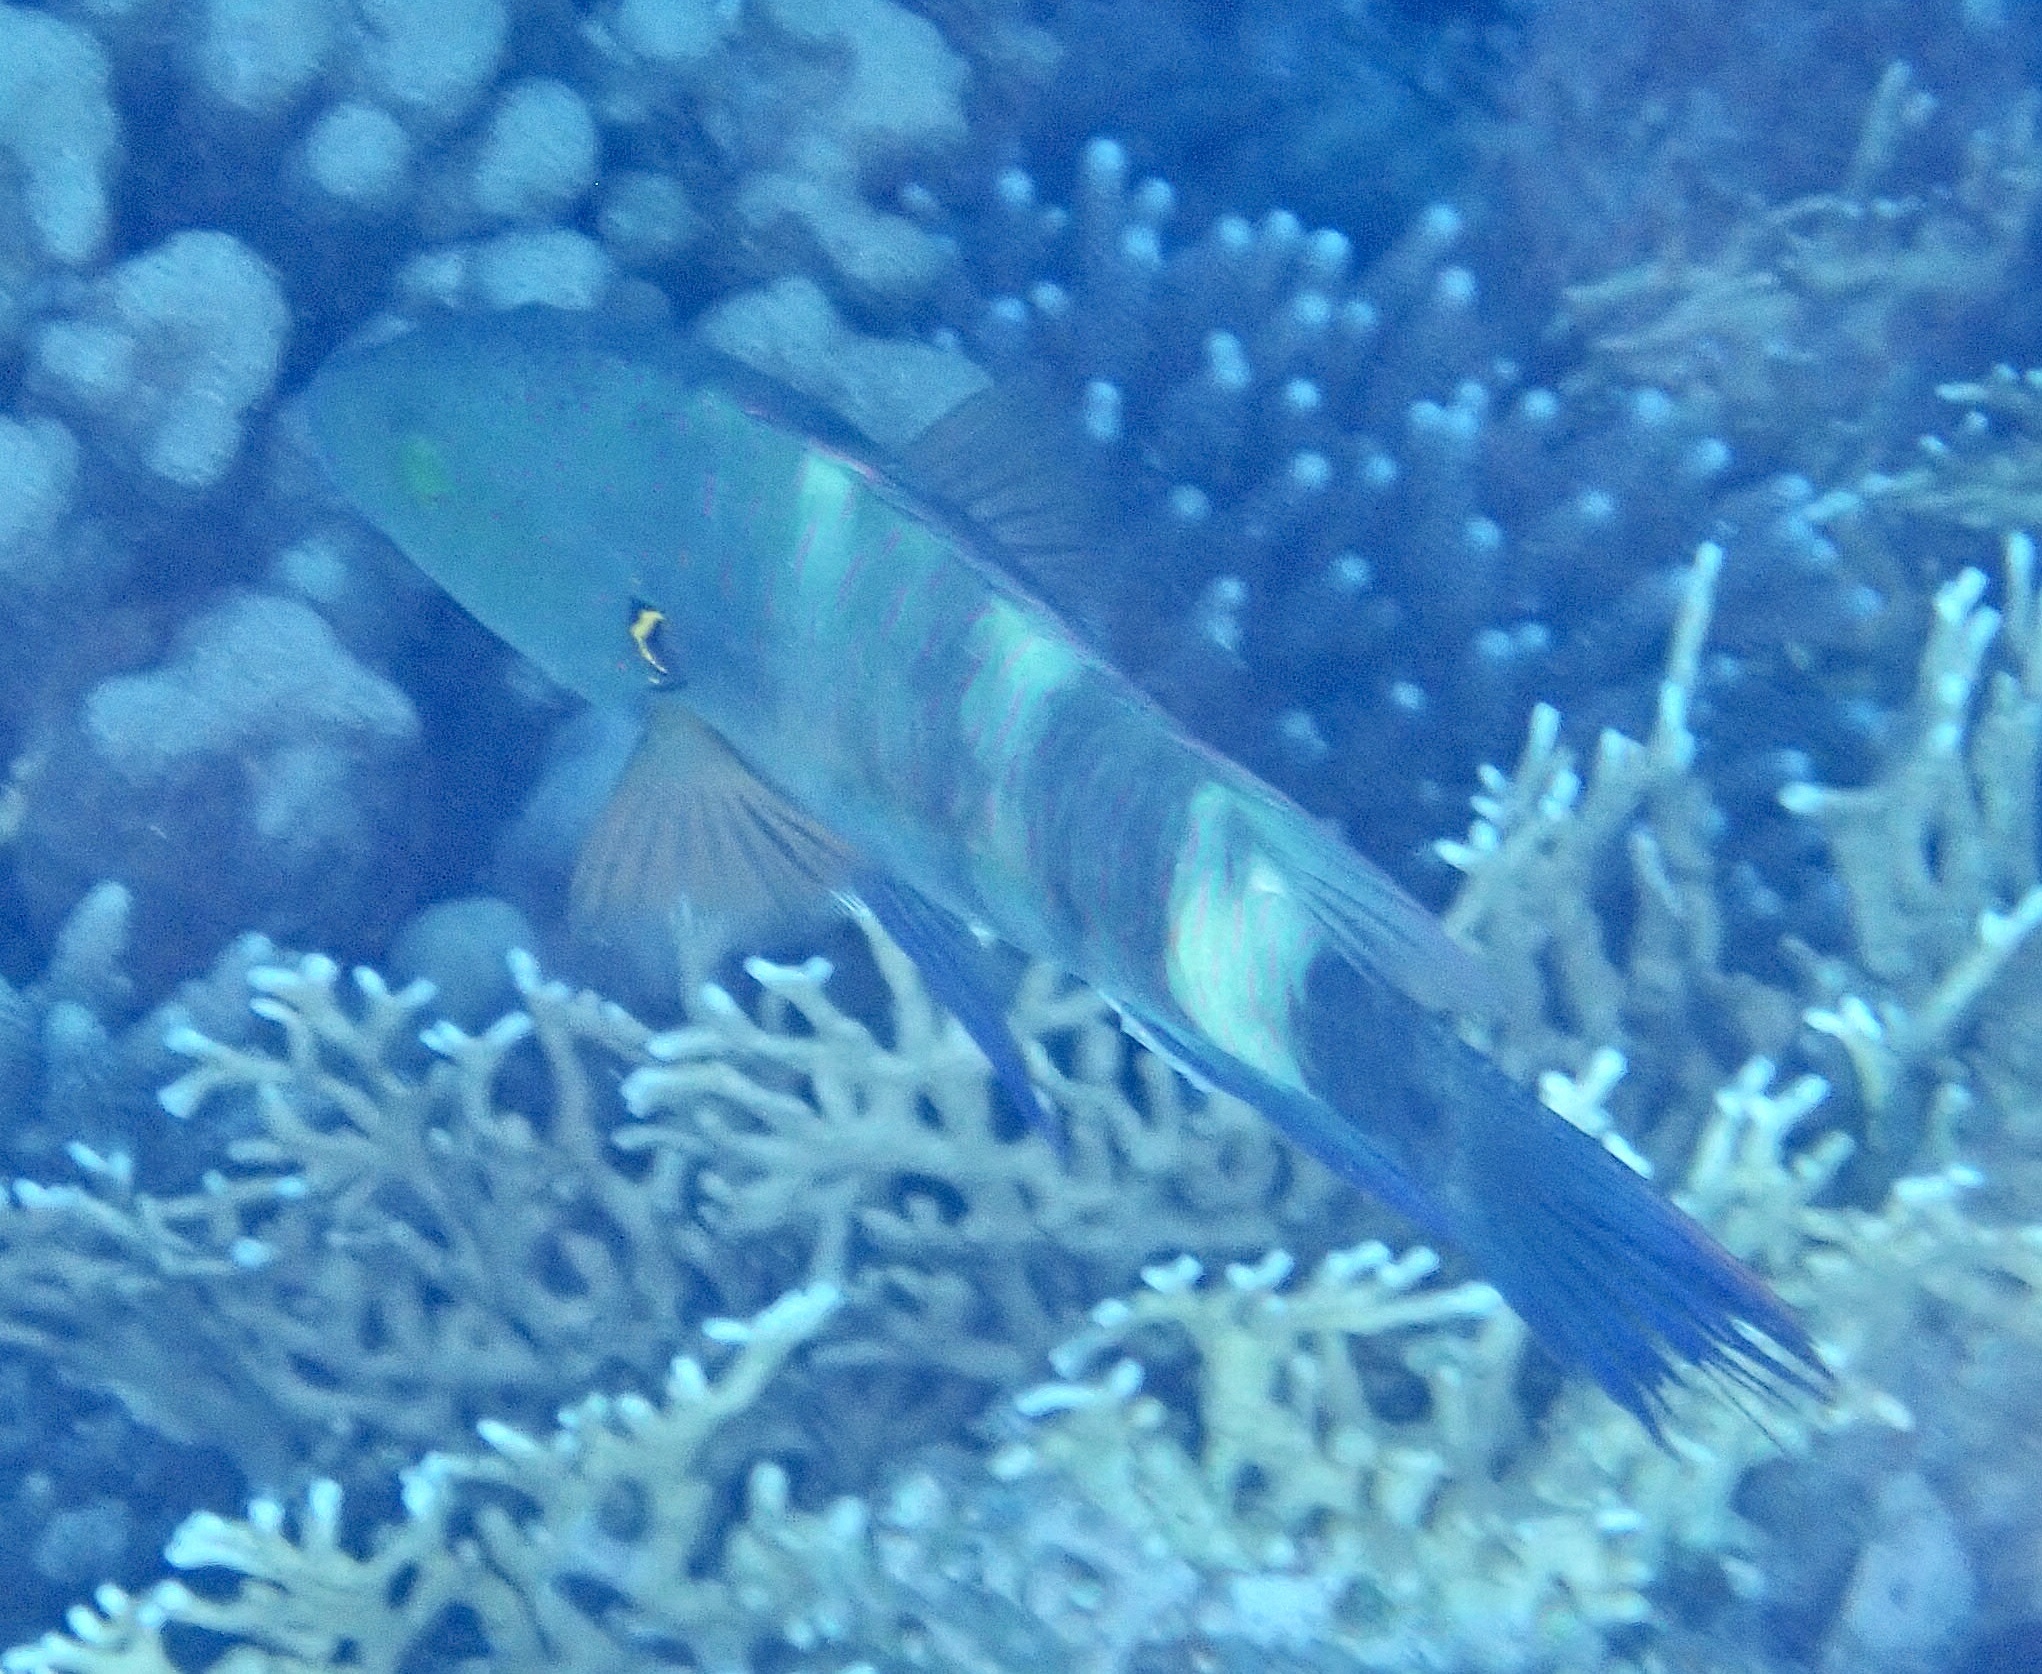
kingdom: Animalia
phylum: Chordata
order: Perciformes
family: Labridae
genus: Cheilinus
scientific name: Cheilinus lunulatus
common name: Broomtail wrasse
